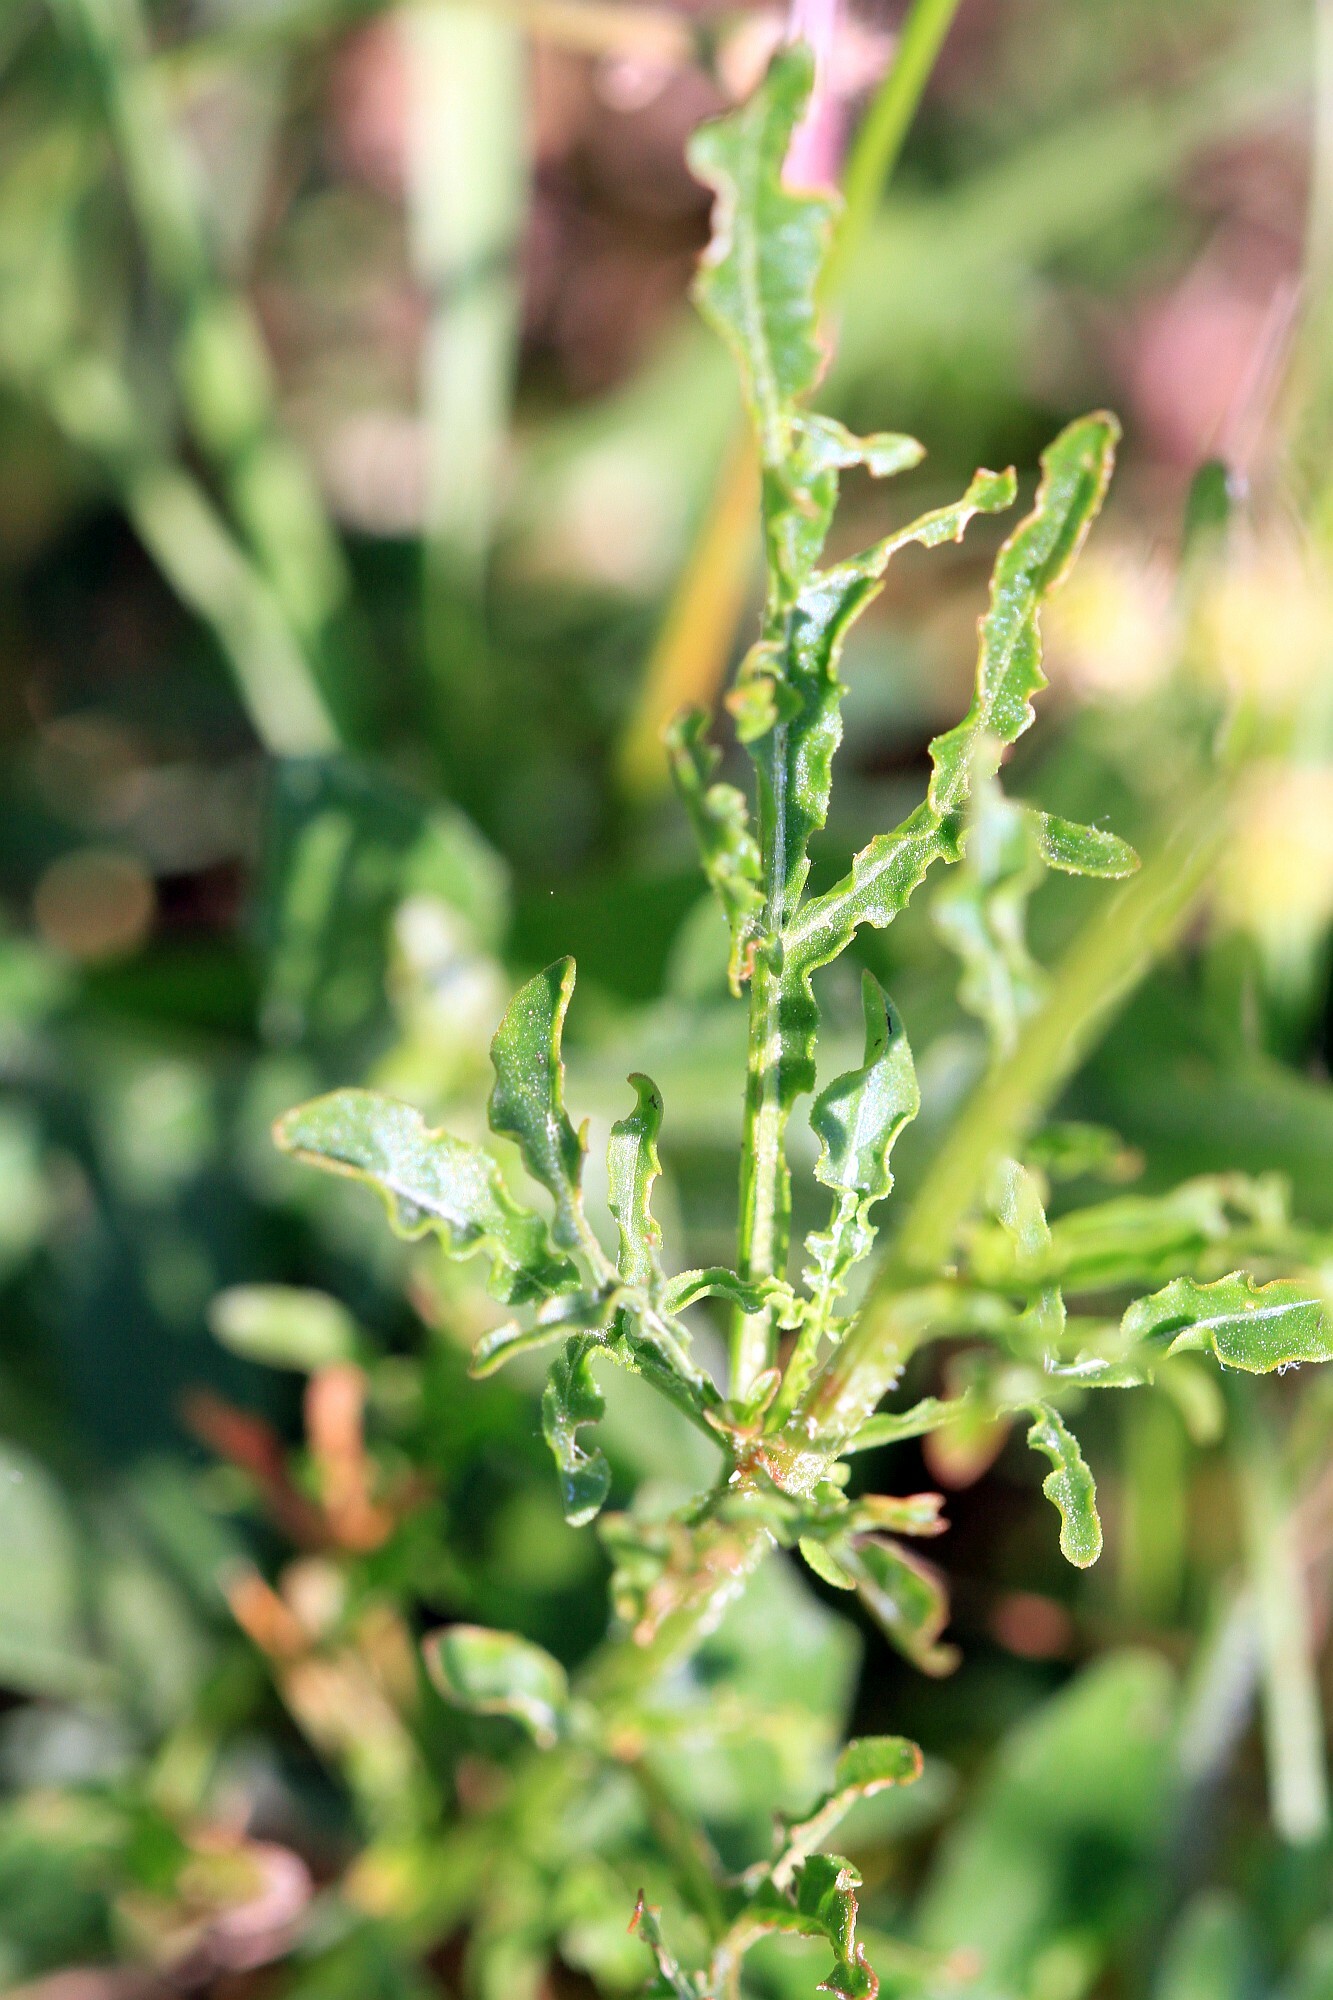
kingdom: Plantae
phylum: Tracheophyta
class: Magnoliopsida
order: Brassicales
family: Resedaceae
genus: Reseda
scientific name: Reseda lutea
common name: Wild mignonette
